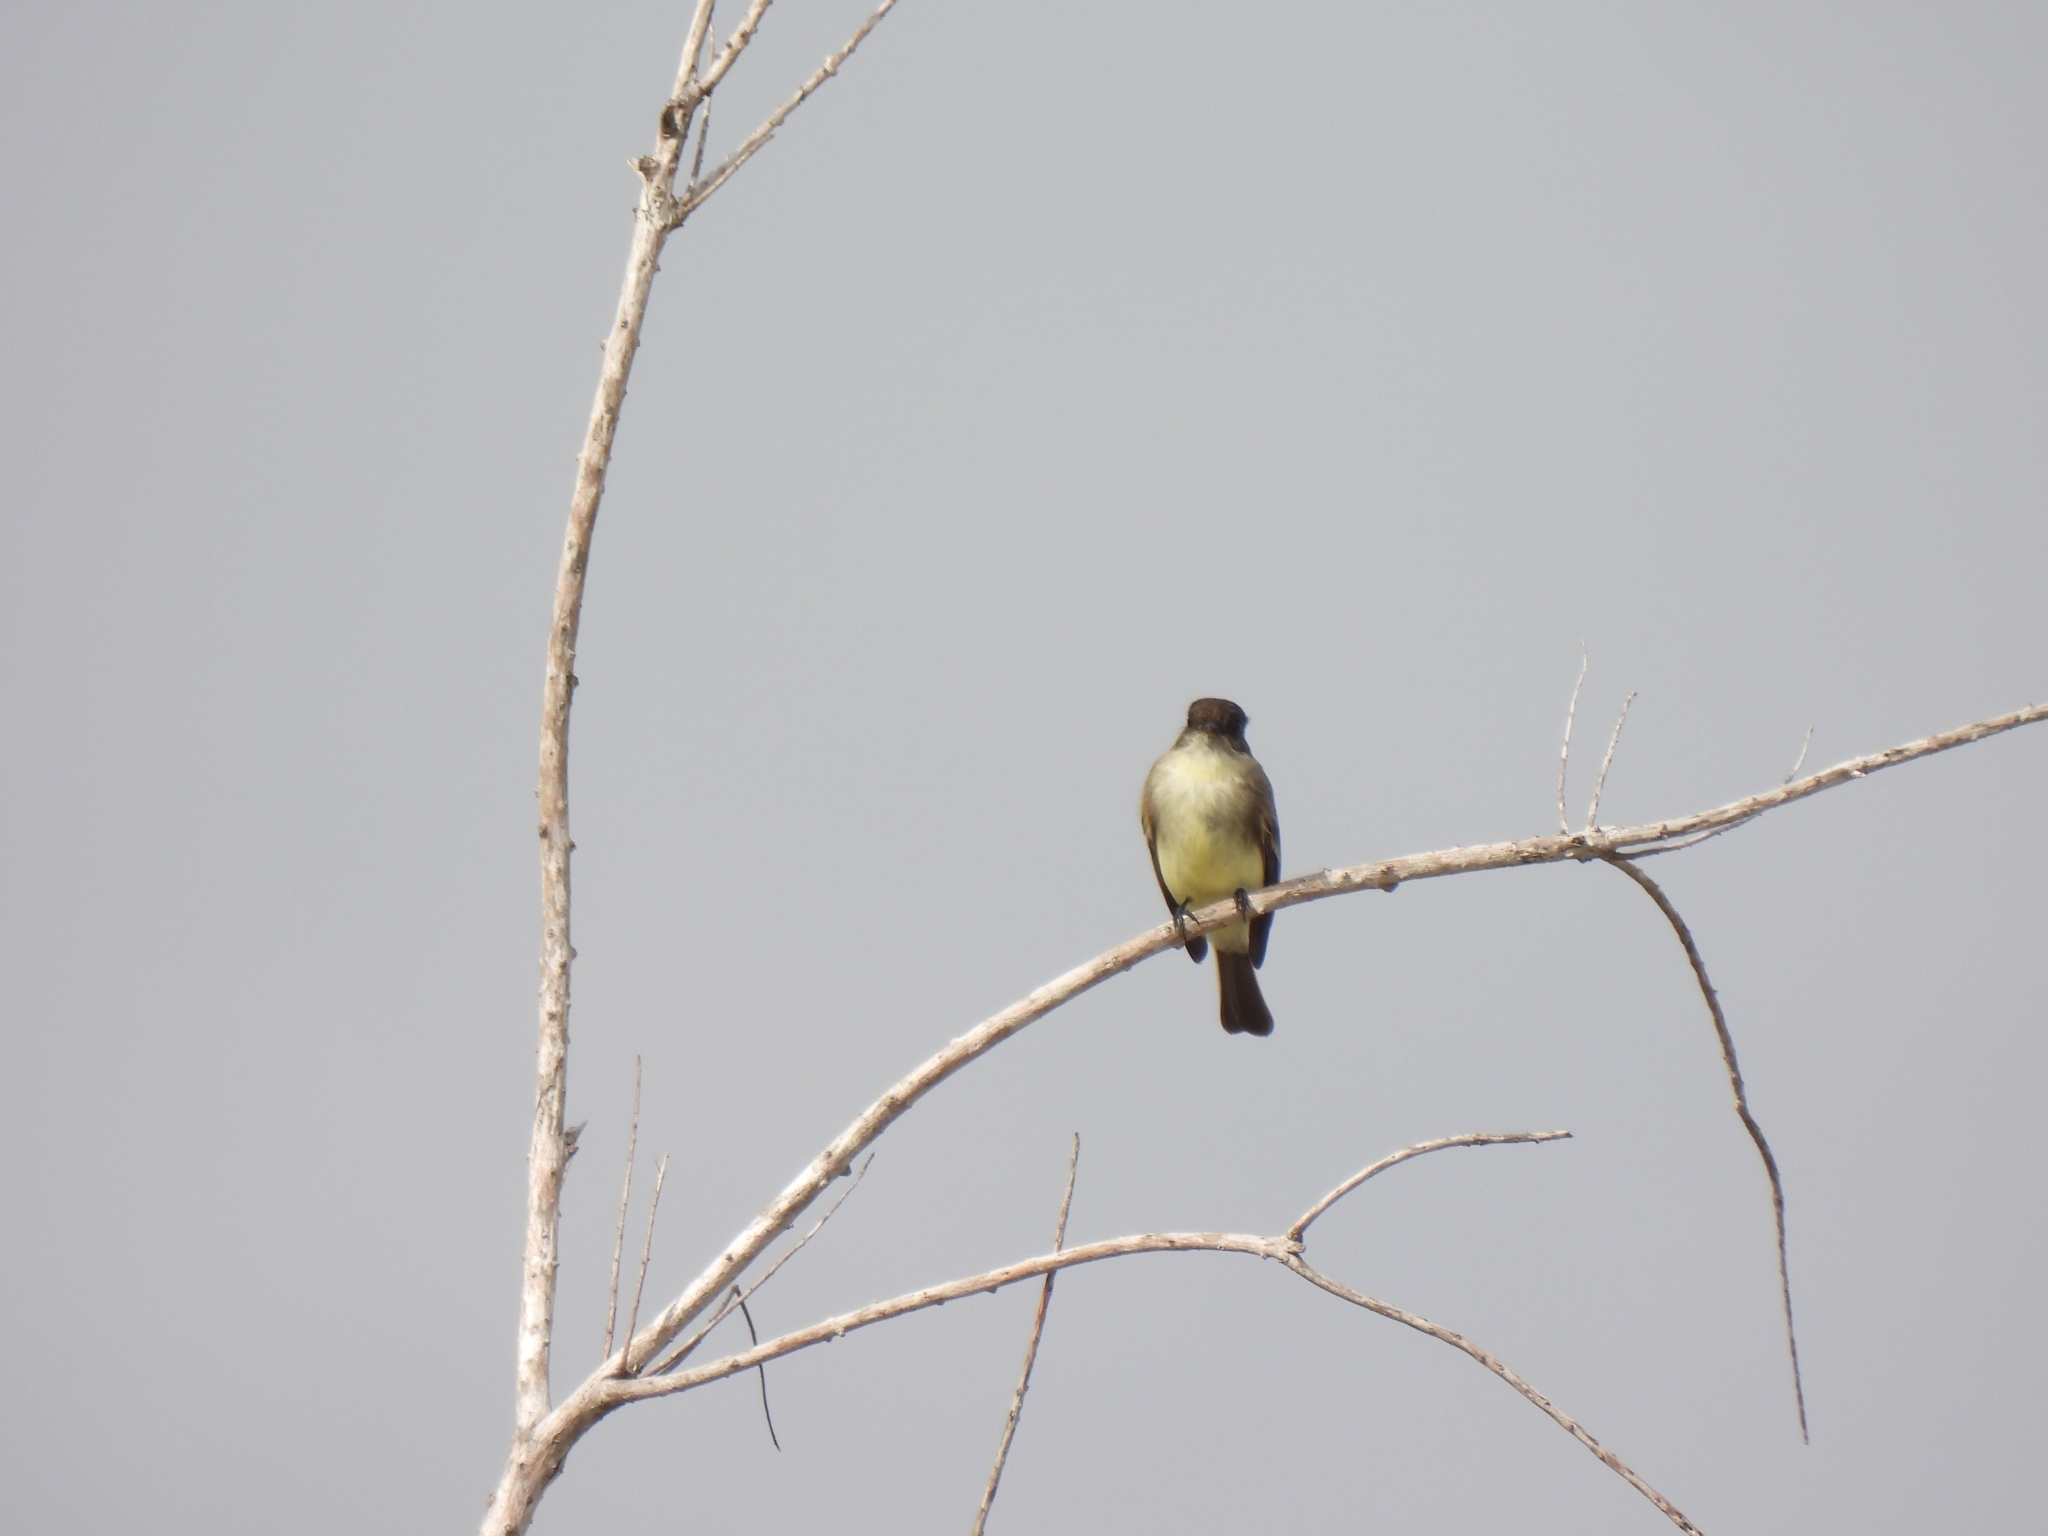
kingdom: Animalia
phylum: Chordata
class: Aves
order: Passeriformes
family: Tyrannidae
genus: Sayornis
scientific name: Sayornis phoebe
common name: Eastern phoebe
